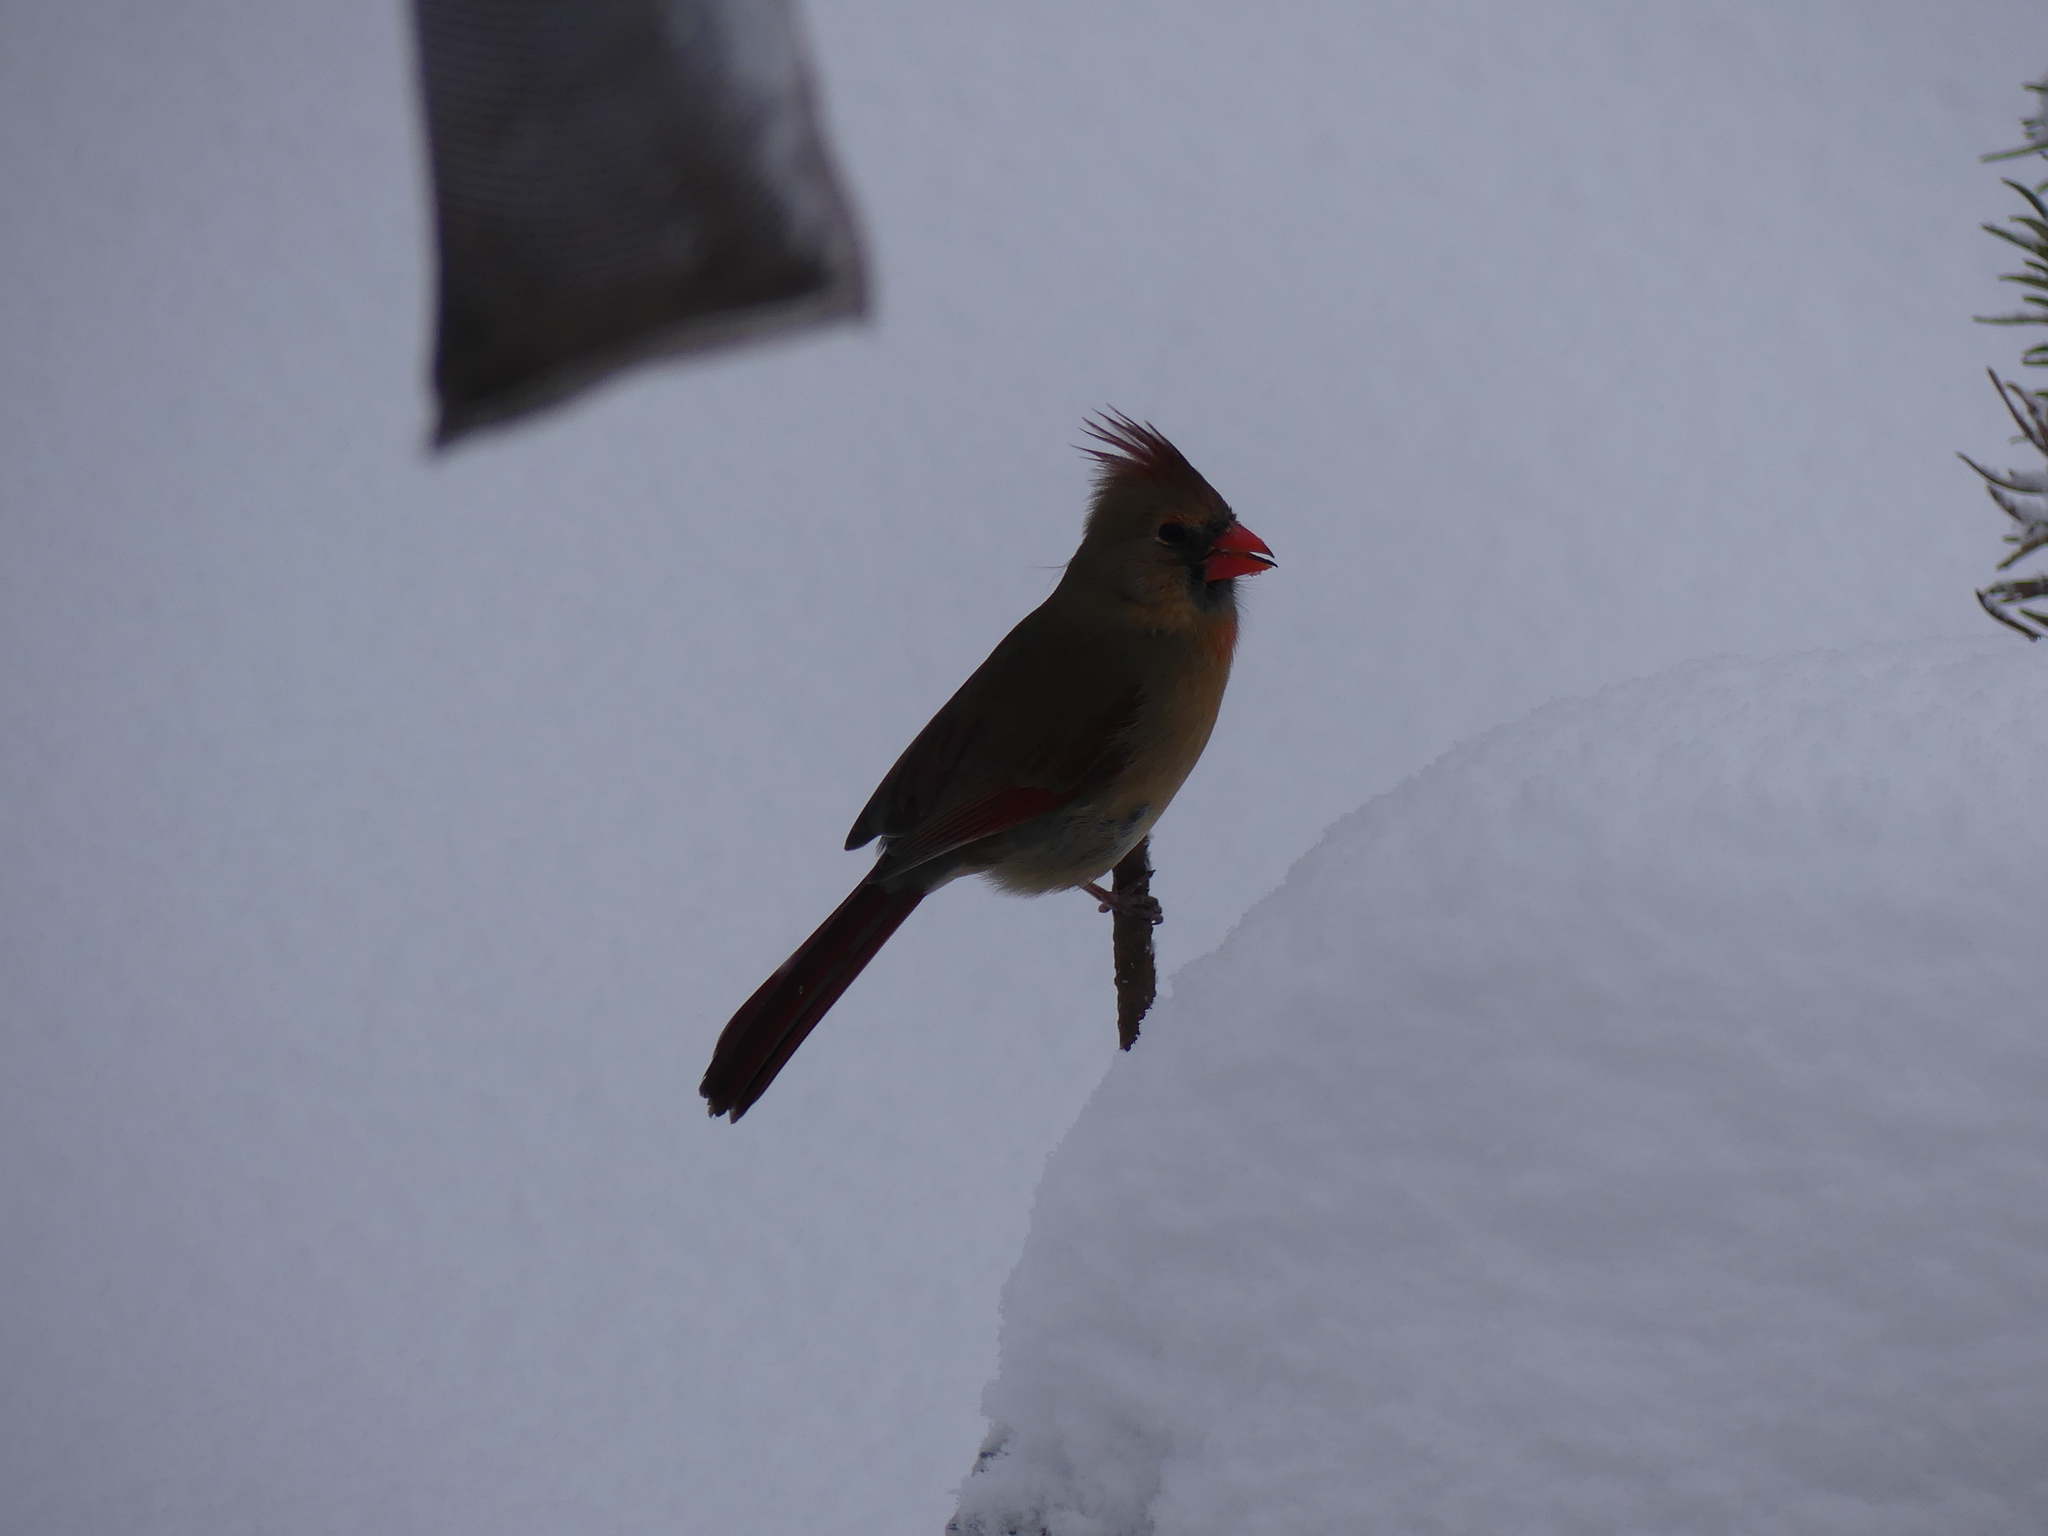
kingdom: Animalia
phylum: Chordata
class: Aves
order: Passeriformes
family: Cardinalidae
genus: Cardinalis
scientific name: Cardinalis cardinalis
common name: Northern cardinal
